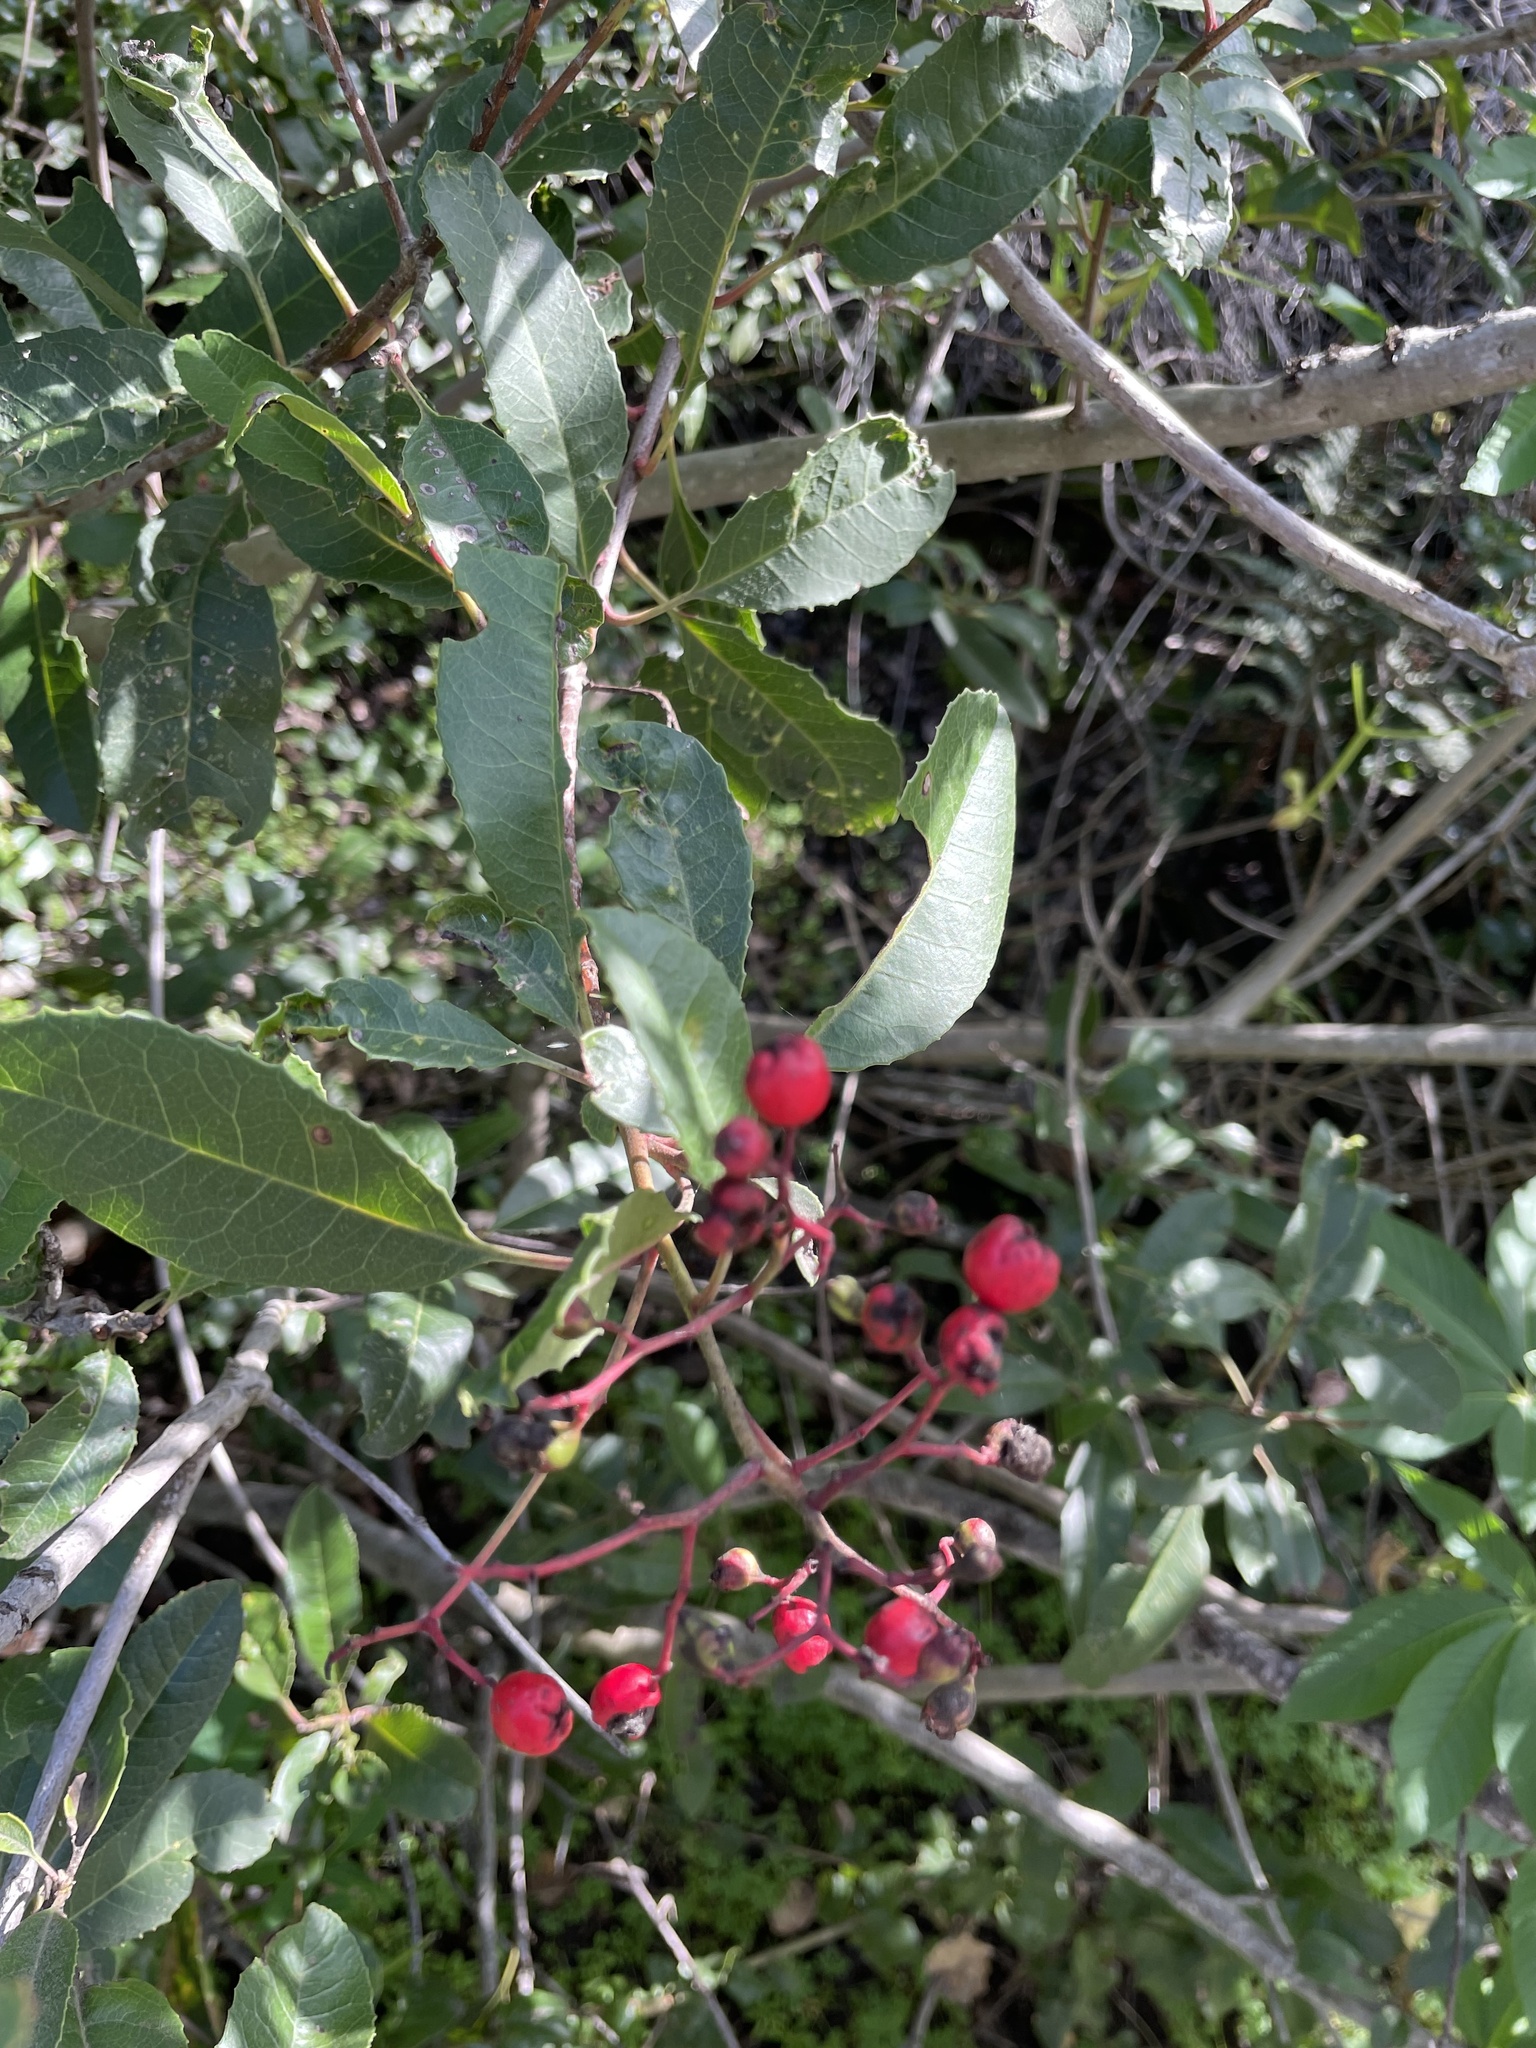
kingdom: Plantae
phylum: Tracheophyta
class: Magnoliopsida
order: Rosales
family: Rosaceae
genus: Heteromeles
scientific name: Heteromeles arbutifolia
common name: California-holly
